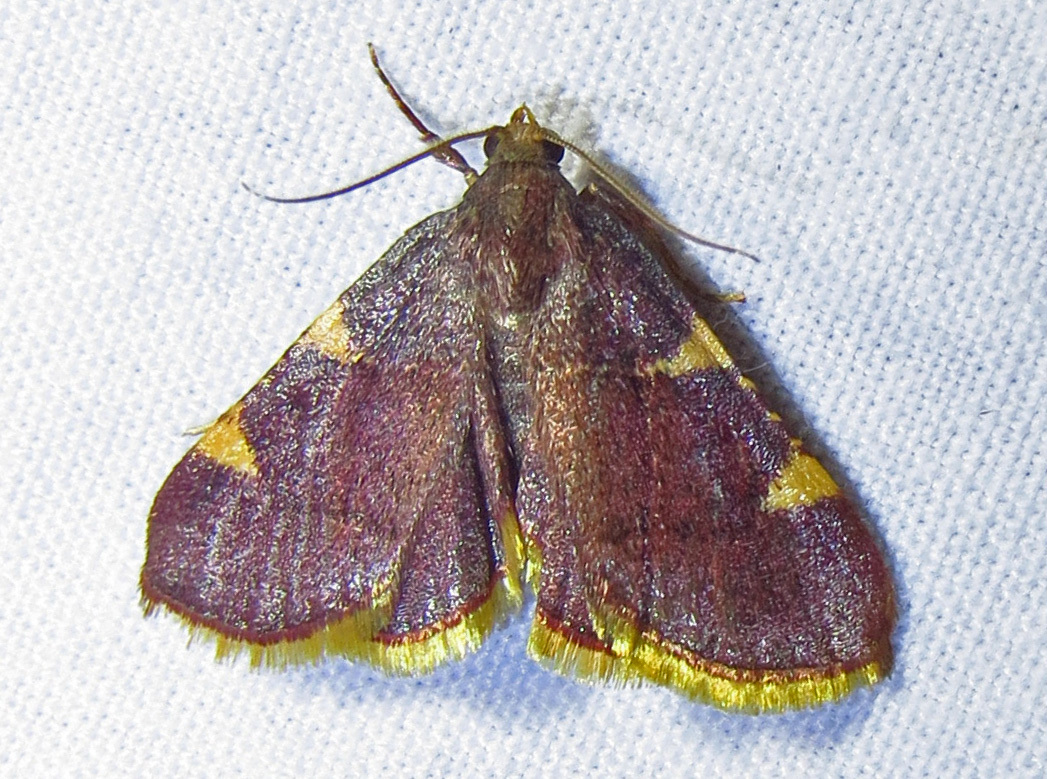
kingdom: Animalia
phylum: Arthropoda
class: Insecta
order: Lepidoptera
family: Pyralidae
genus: Hypsopygia
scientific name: Hypsopygia olinalis
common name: Yellow-fringed dolichomia moth
